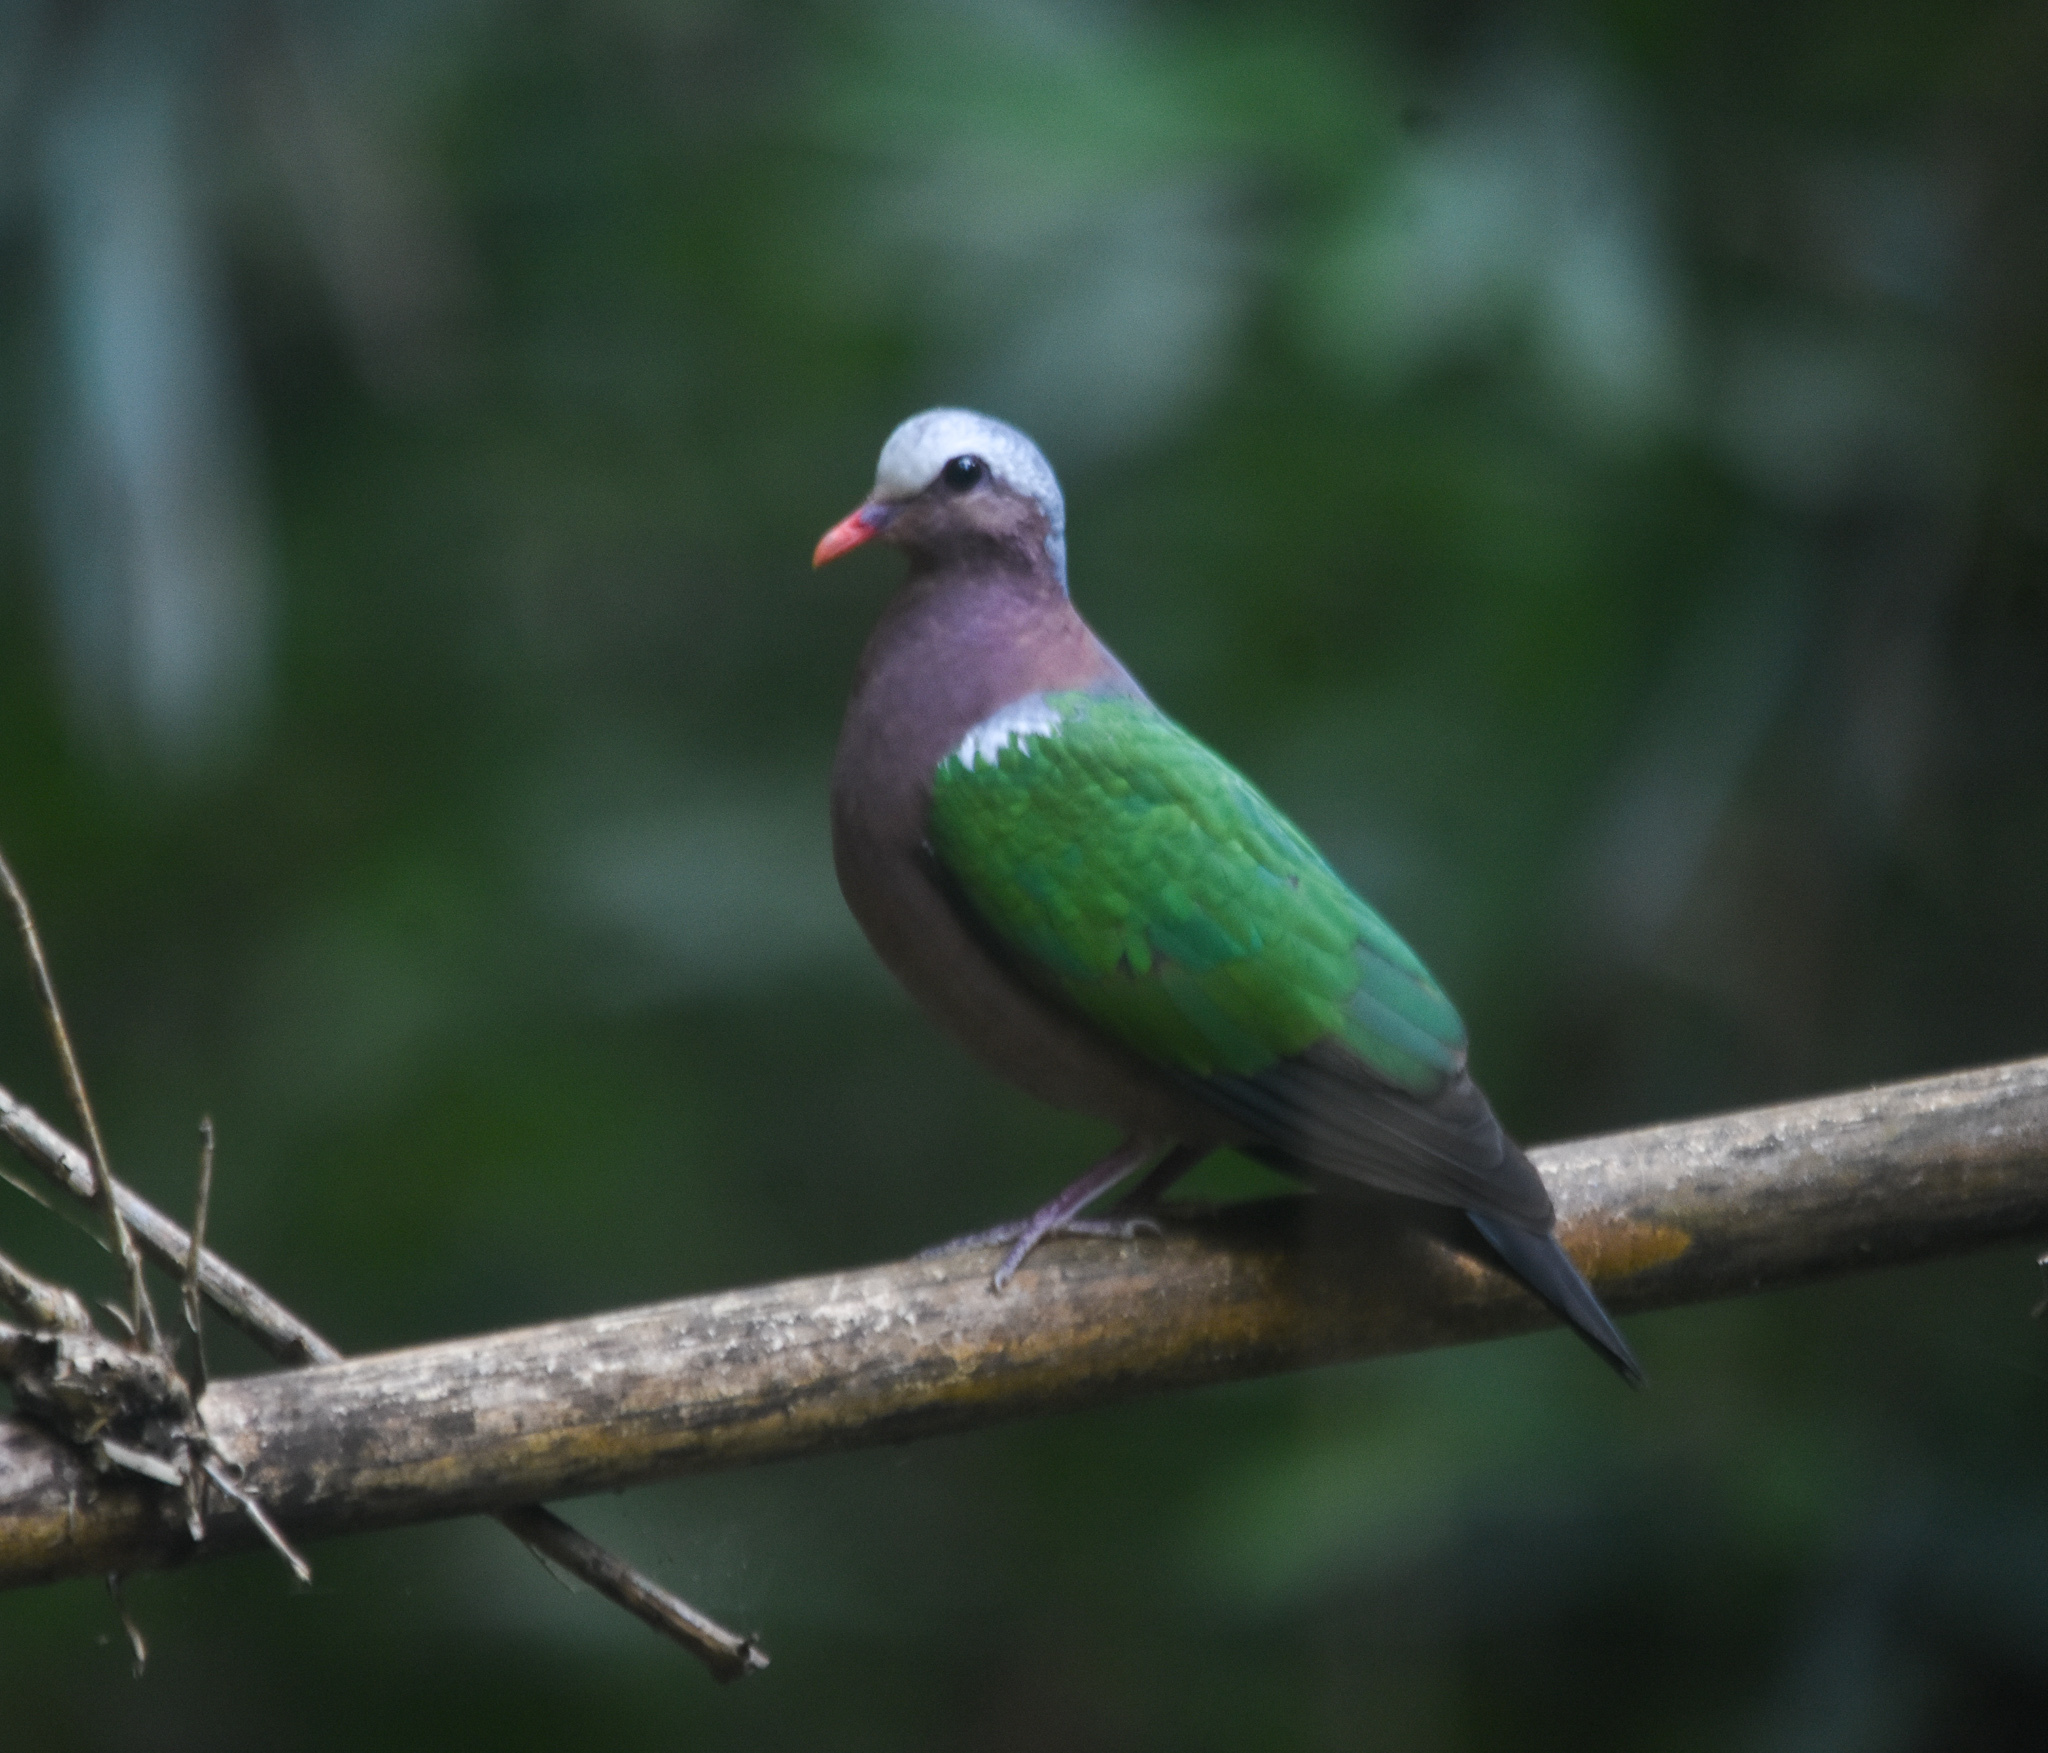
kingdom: Animalia
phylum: Chordata
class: Aves
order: Columbiformes
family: Columbidae
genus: Chalcophaps
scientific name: Chalcophaps indica
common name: Common emerald dove
